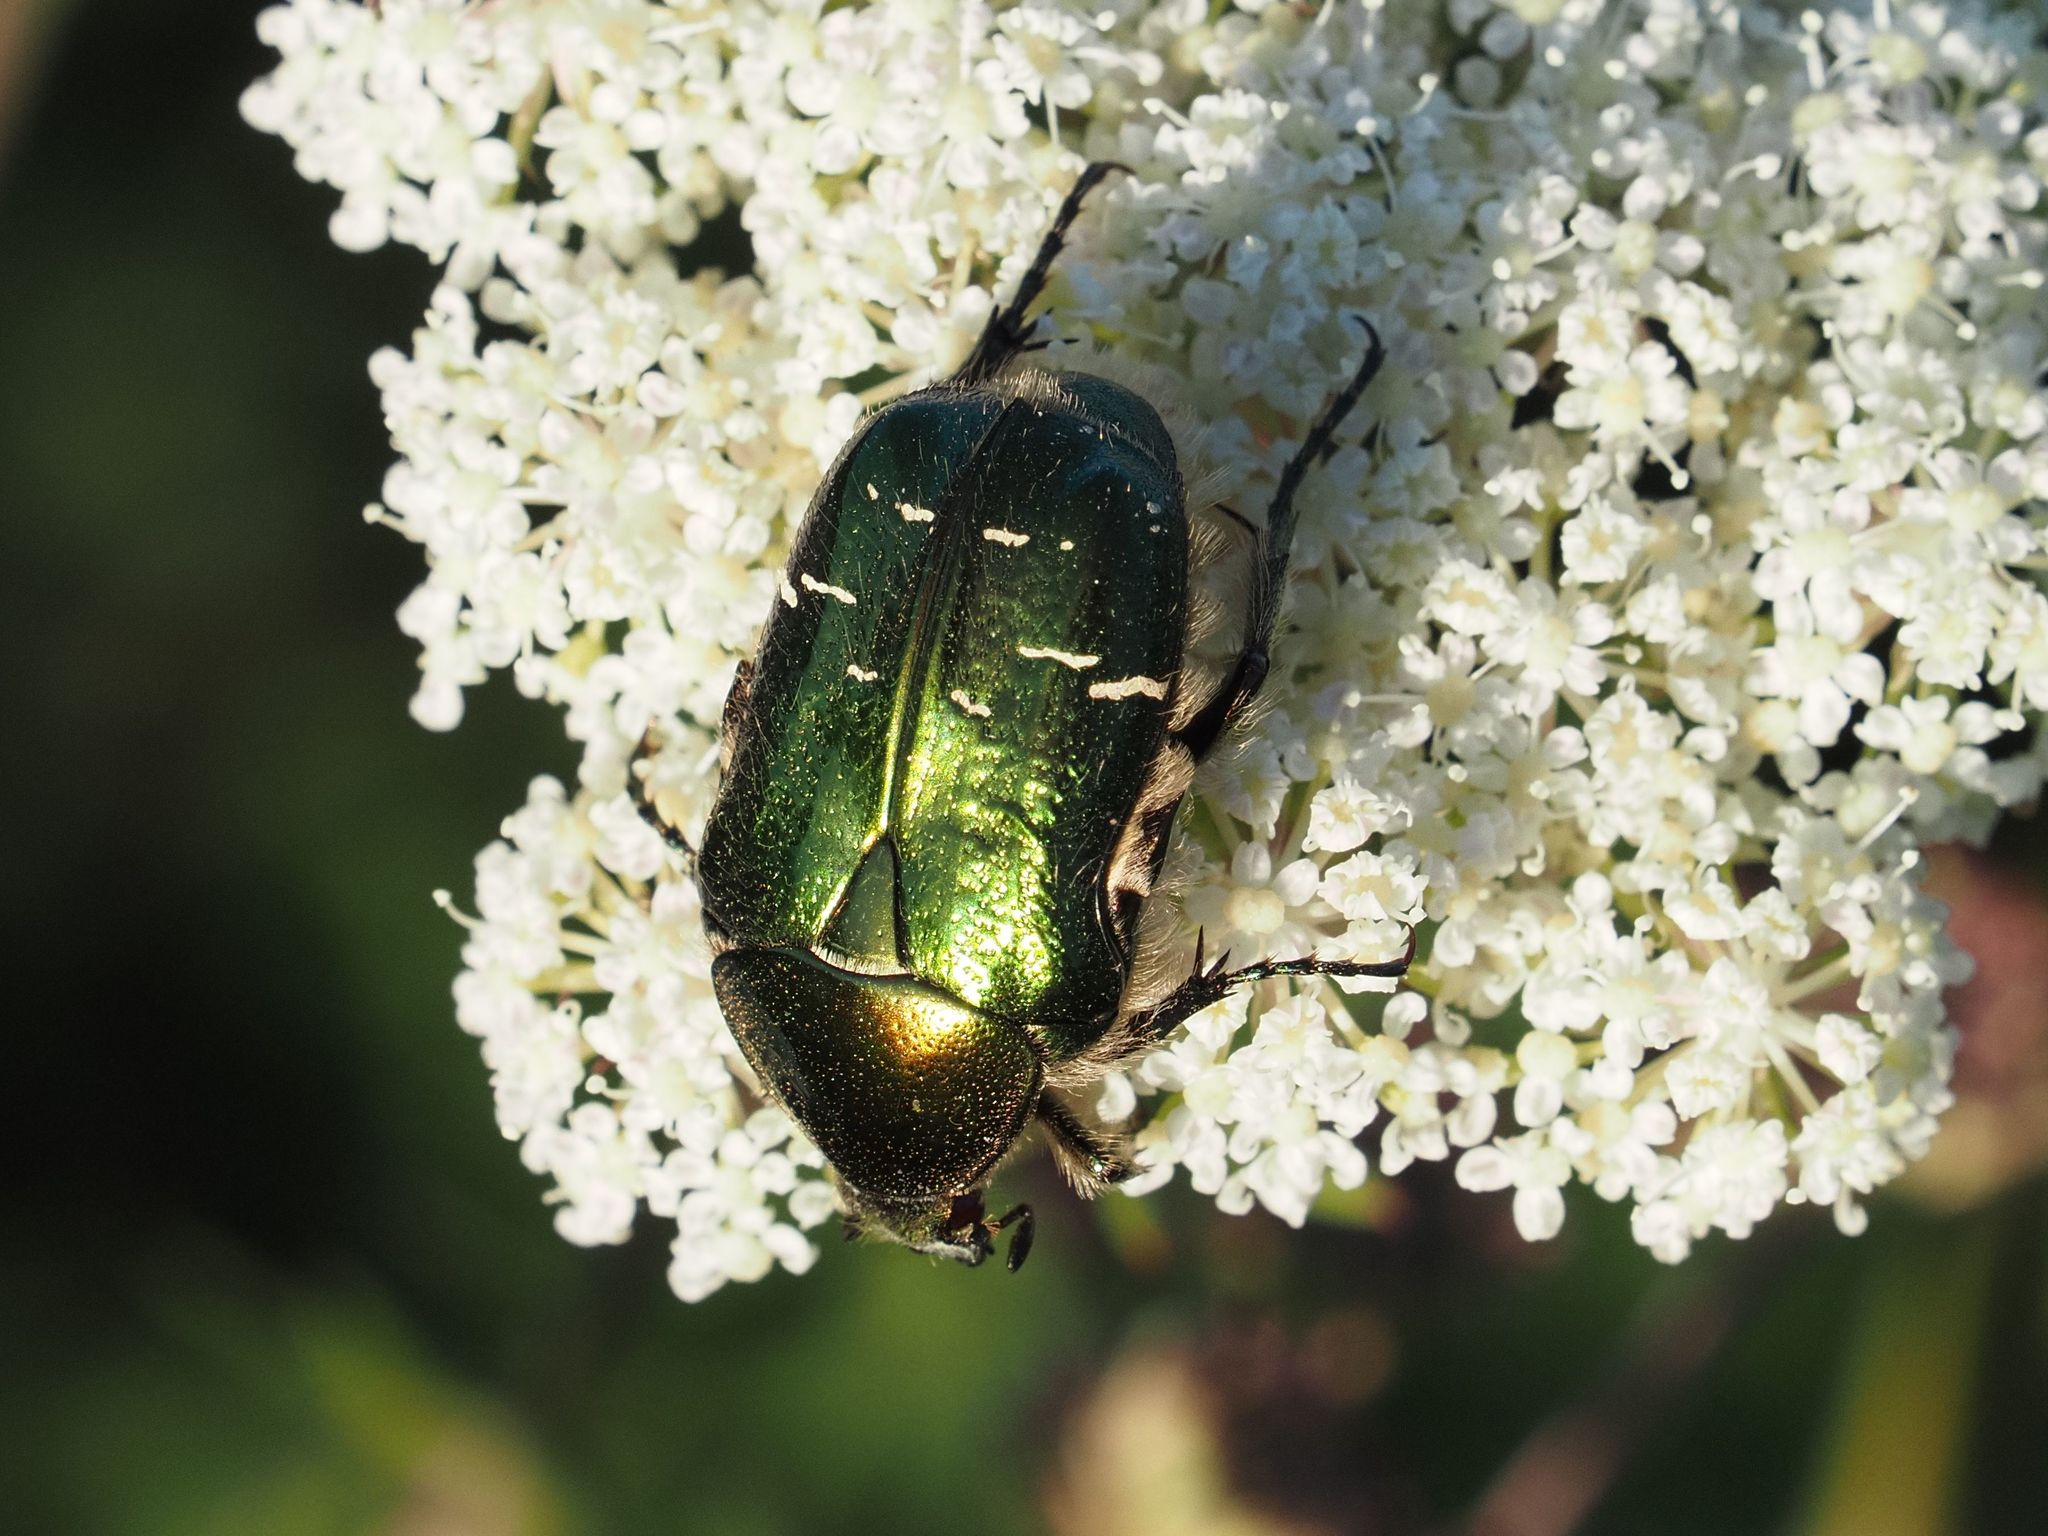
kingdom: Animalia
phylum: Arthropoda
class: Insecta
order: Coleoptera
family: Scarabaeidae
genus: Cetonia
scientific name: Cetonia aurata
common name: Rose chafer
